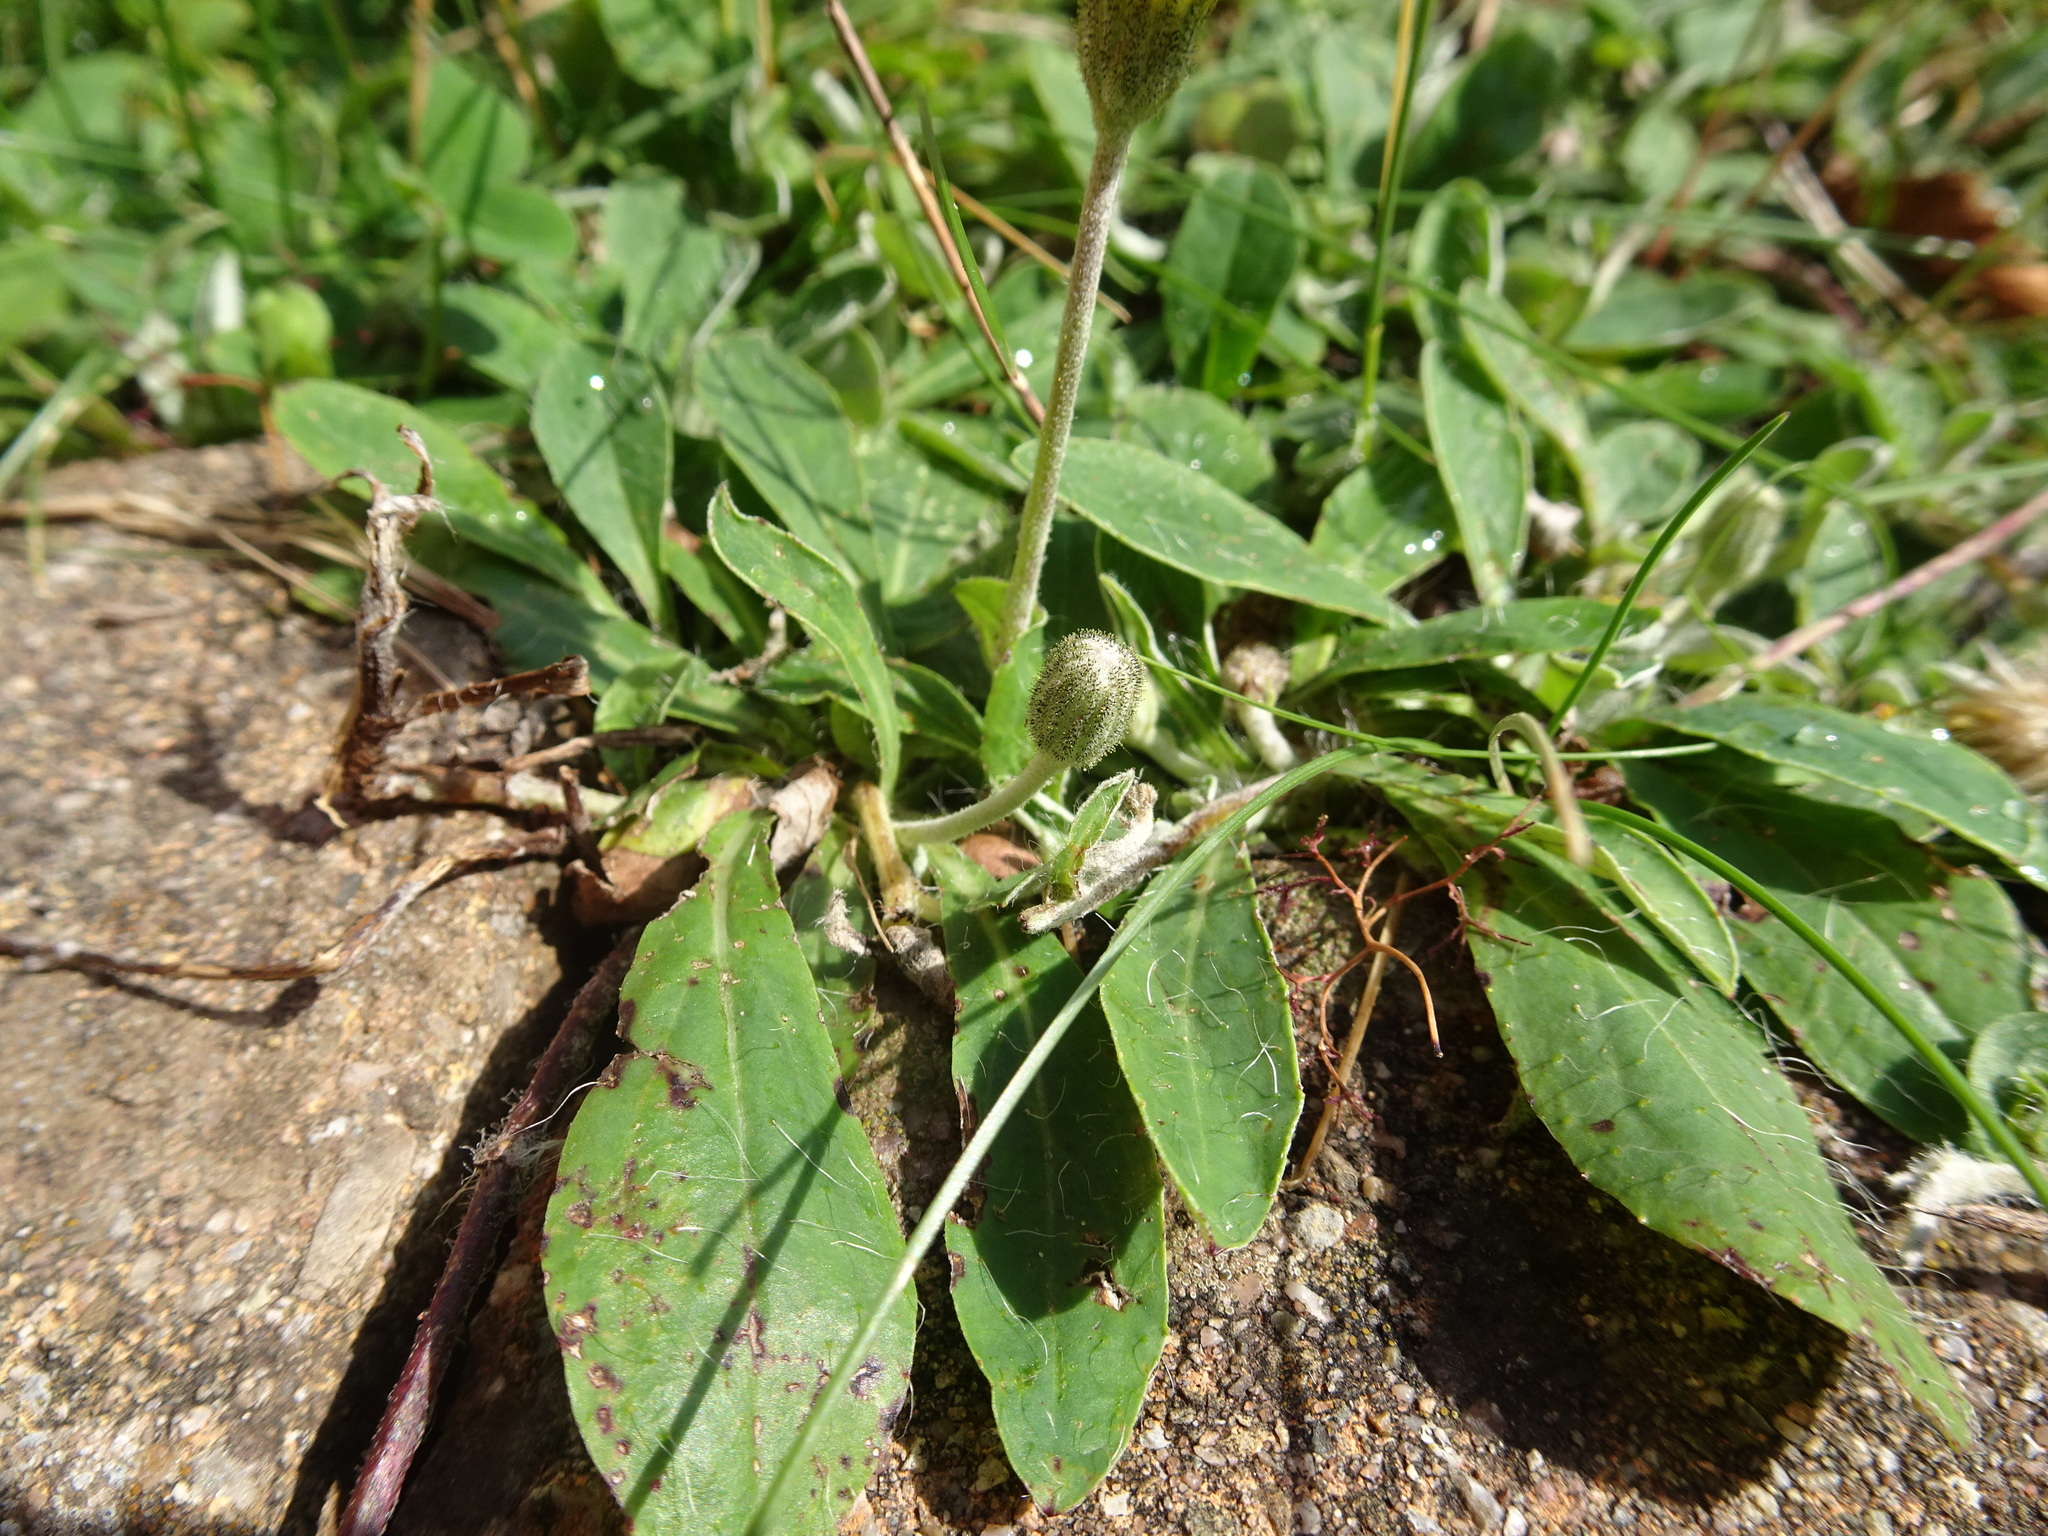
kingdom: Plantae
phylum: Tracheophyta
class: Magnoliopsida
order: Asterales
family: Asteraceae
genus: Pilosella
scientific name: Pilosella officinarum
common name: Mouse-ear hawkweed
